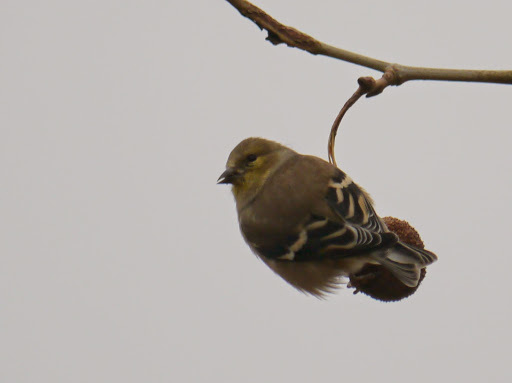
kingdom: Animalia
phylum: Chordata
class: Aves
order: Passeriformes
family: Fringillidae
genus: Spinus
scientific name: Spinus tristis
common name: American goldfinch
